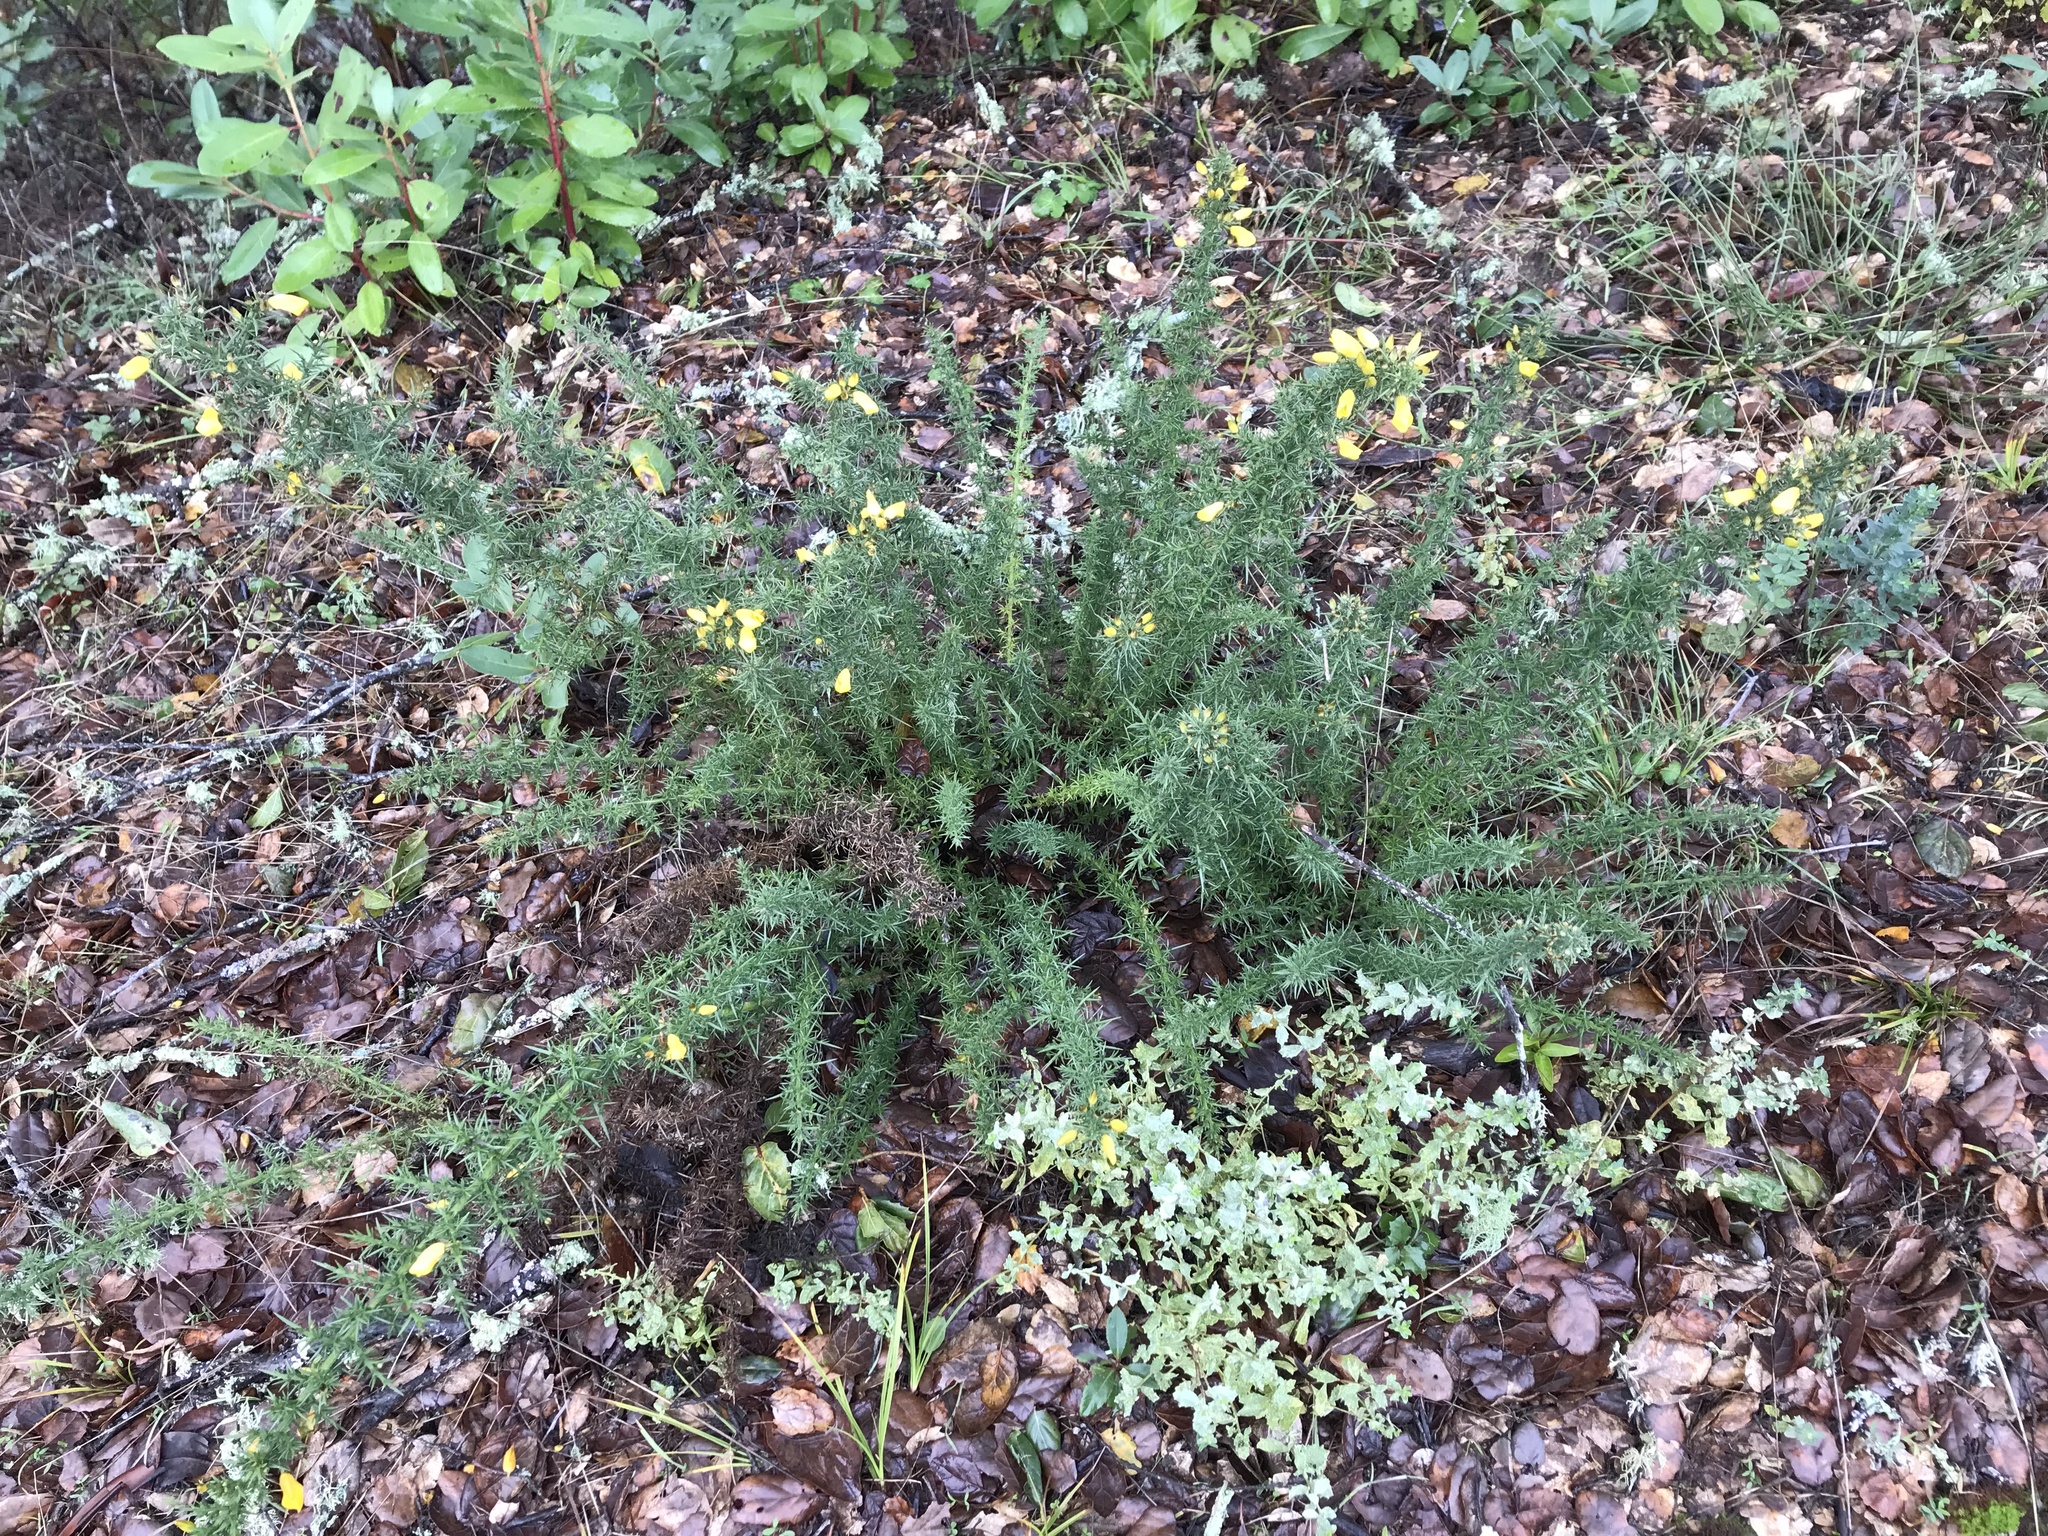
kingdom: Plantae
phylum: Tracheophyta
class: Magnoliopsida
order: Fabales
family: Fabaceae
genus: Ulex
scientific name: Ulex europaeus
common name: Common gorse
